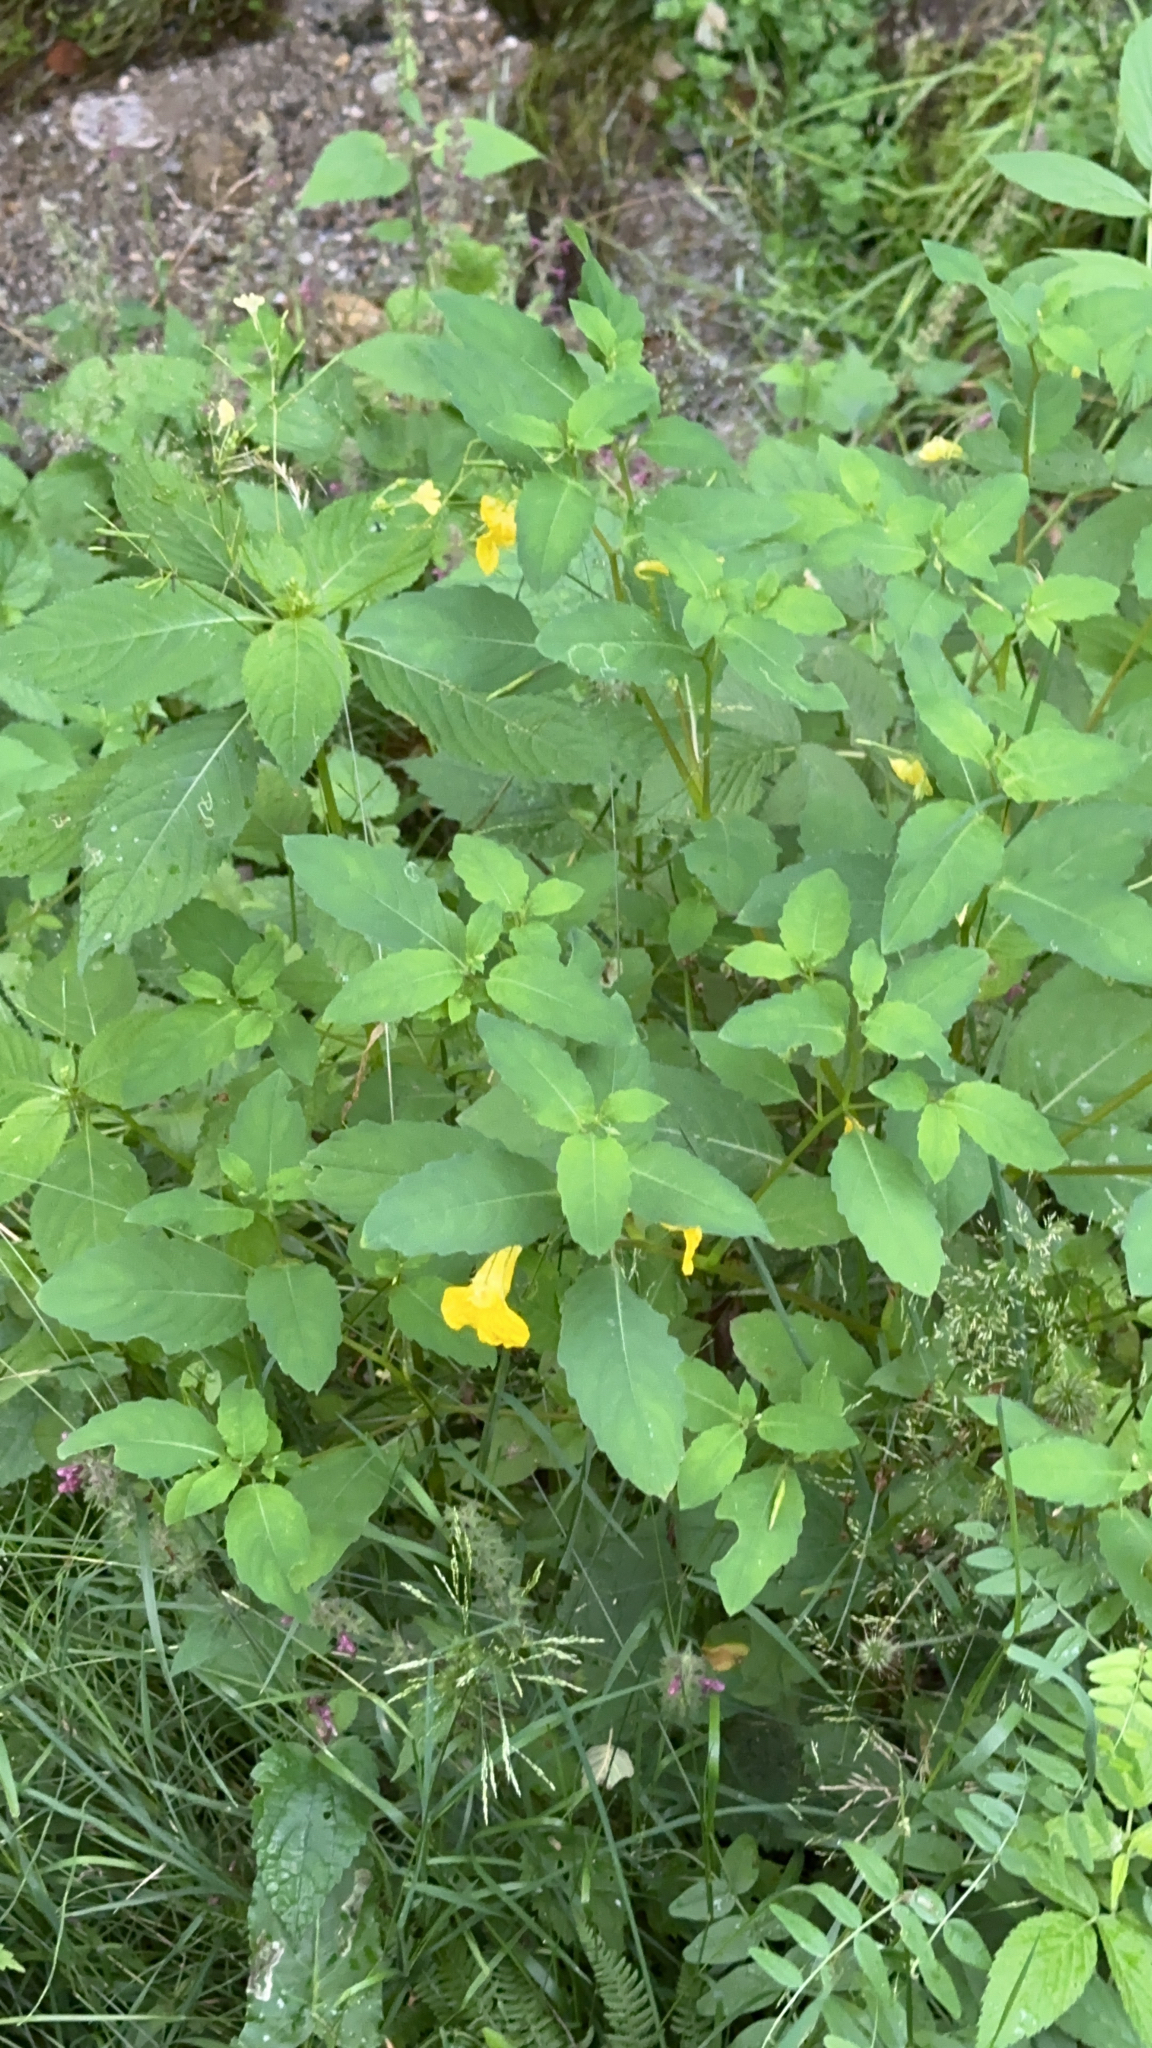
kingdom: Plantae
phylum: Tracheophyta
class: Magnoliopsida
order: Ericales
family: Balsaminaceae
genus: Impatiens
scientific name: Impatiens noli-tangere
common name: Touch-me-not balsam
